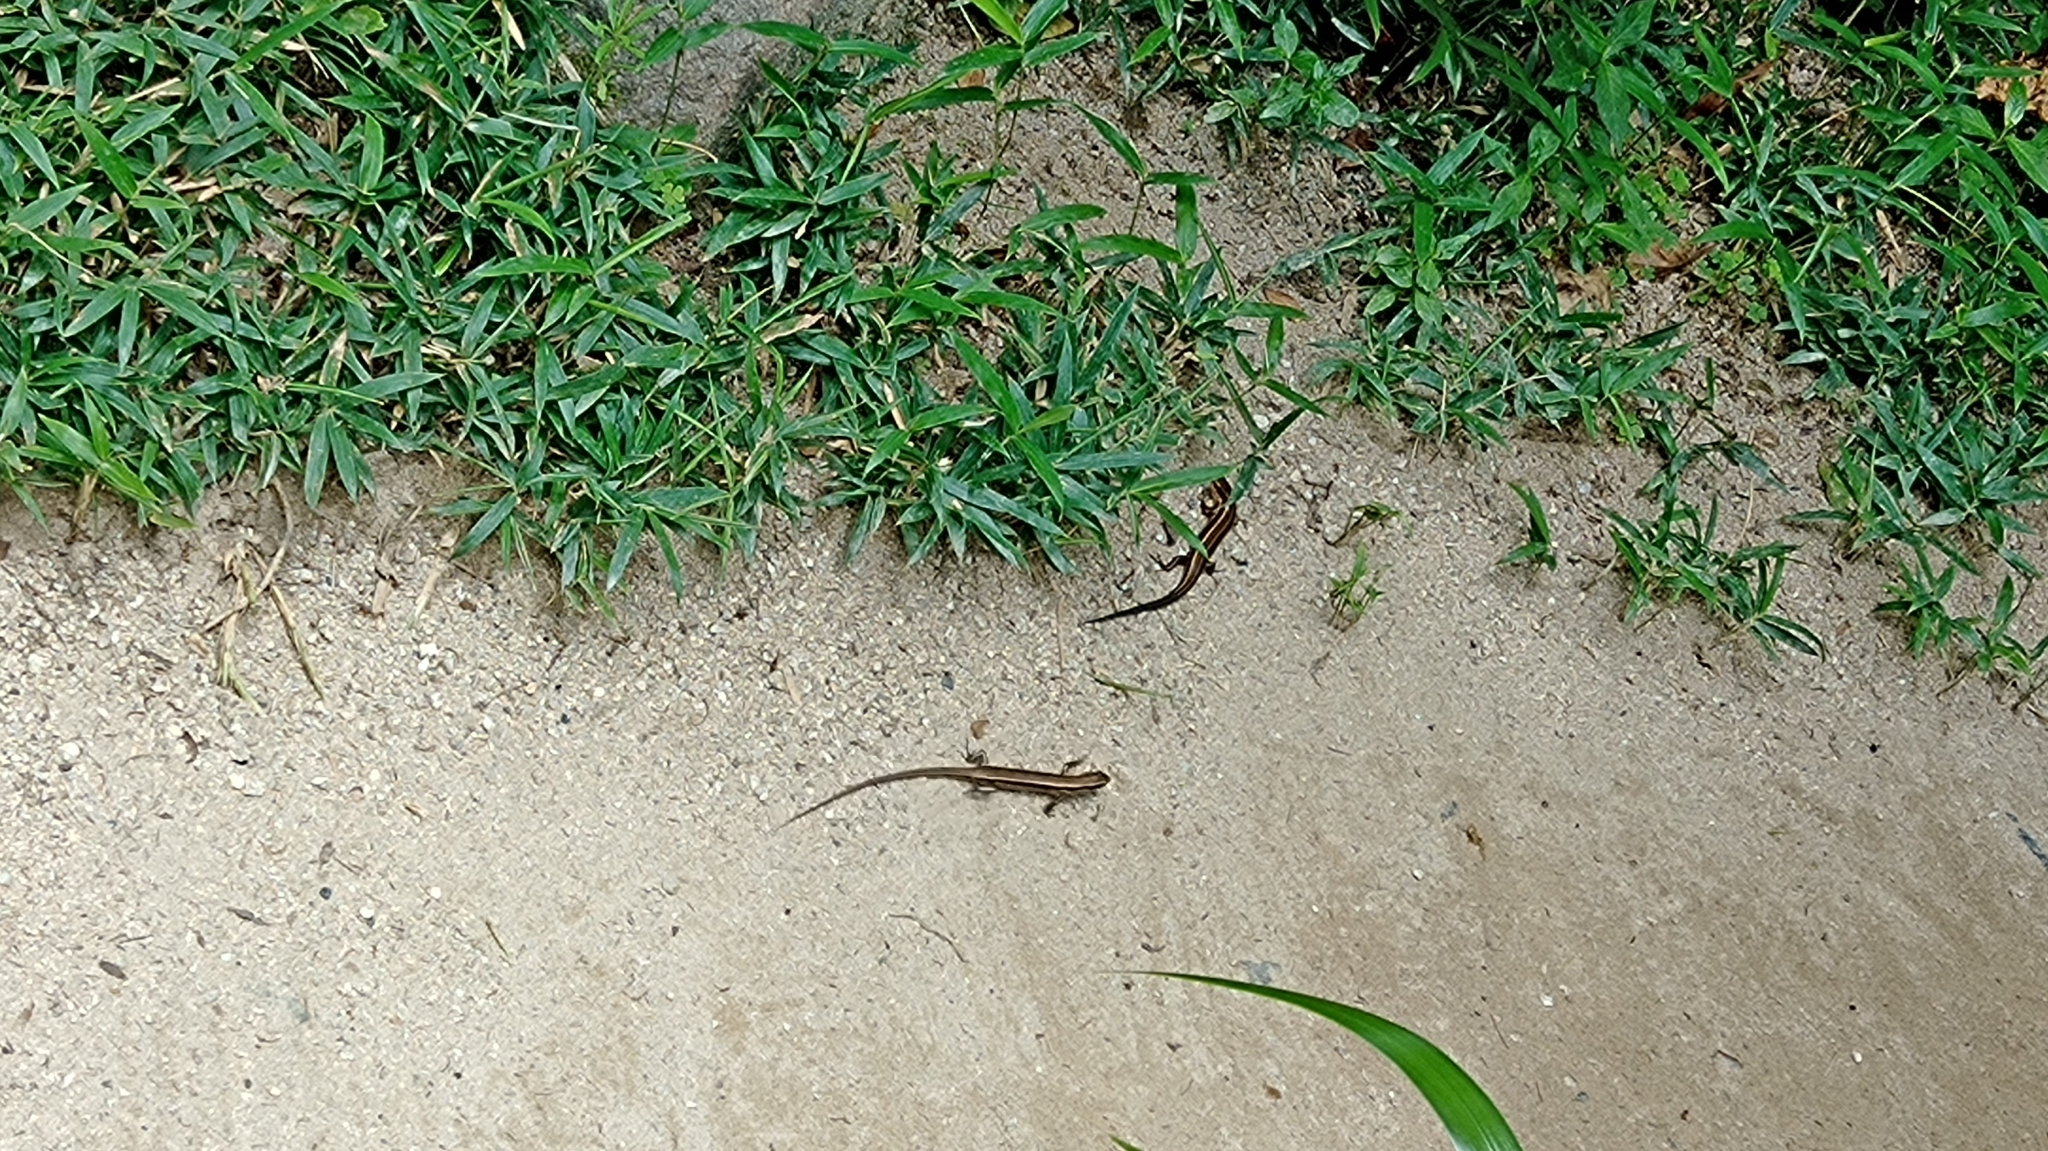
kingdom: Animalia
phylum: Chordata
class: Squamata
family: Scincidae
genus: Plestiodon
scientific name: Plestiodon japonicus
